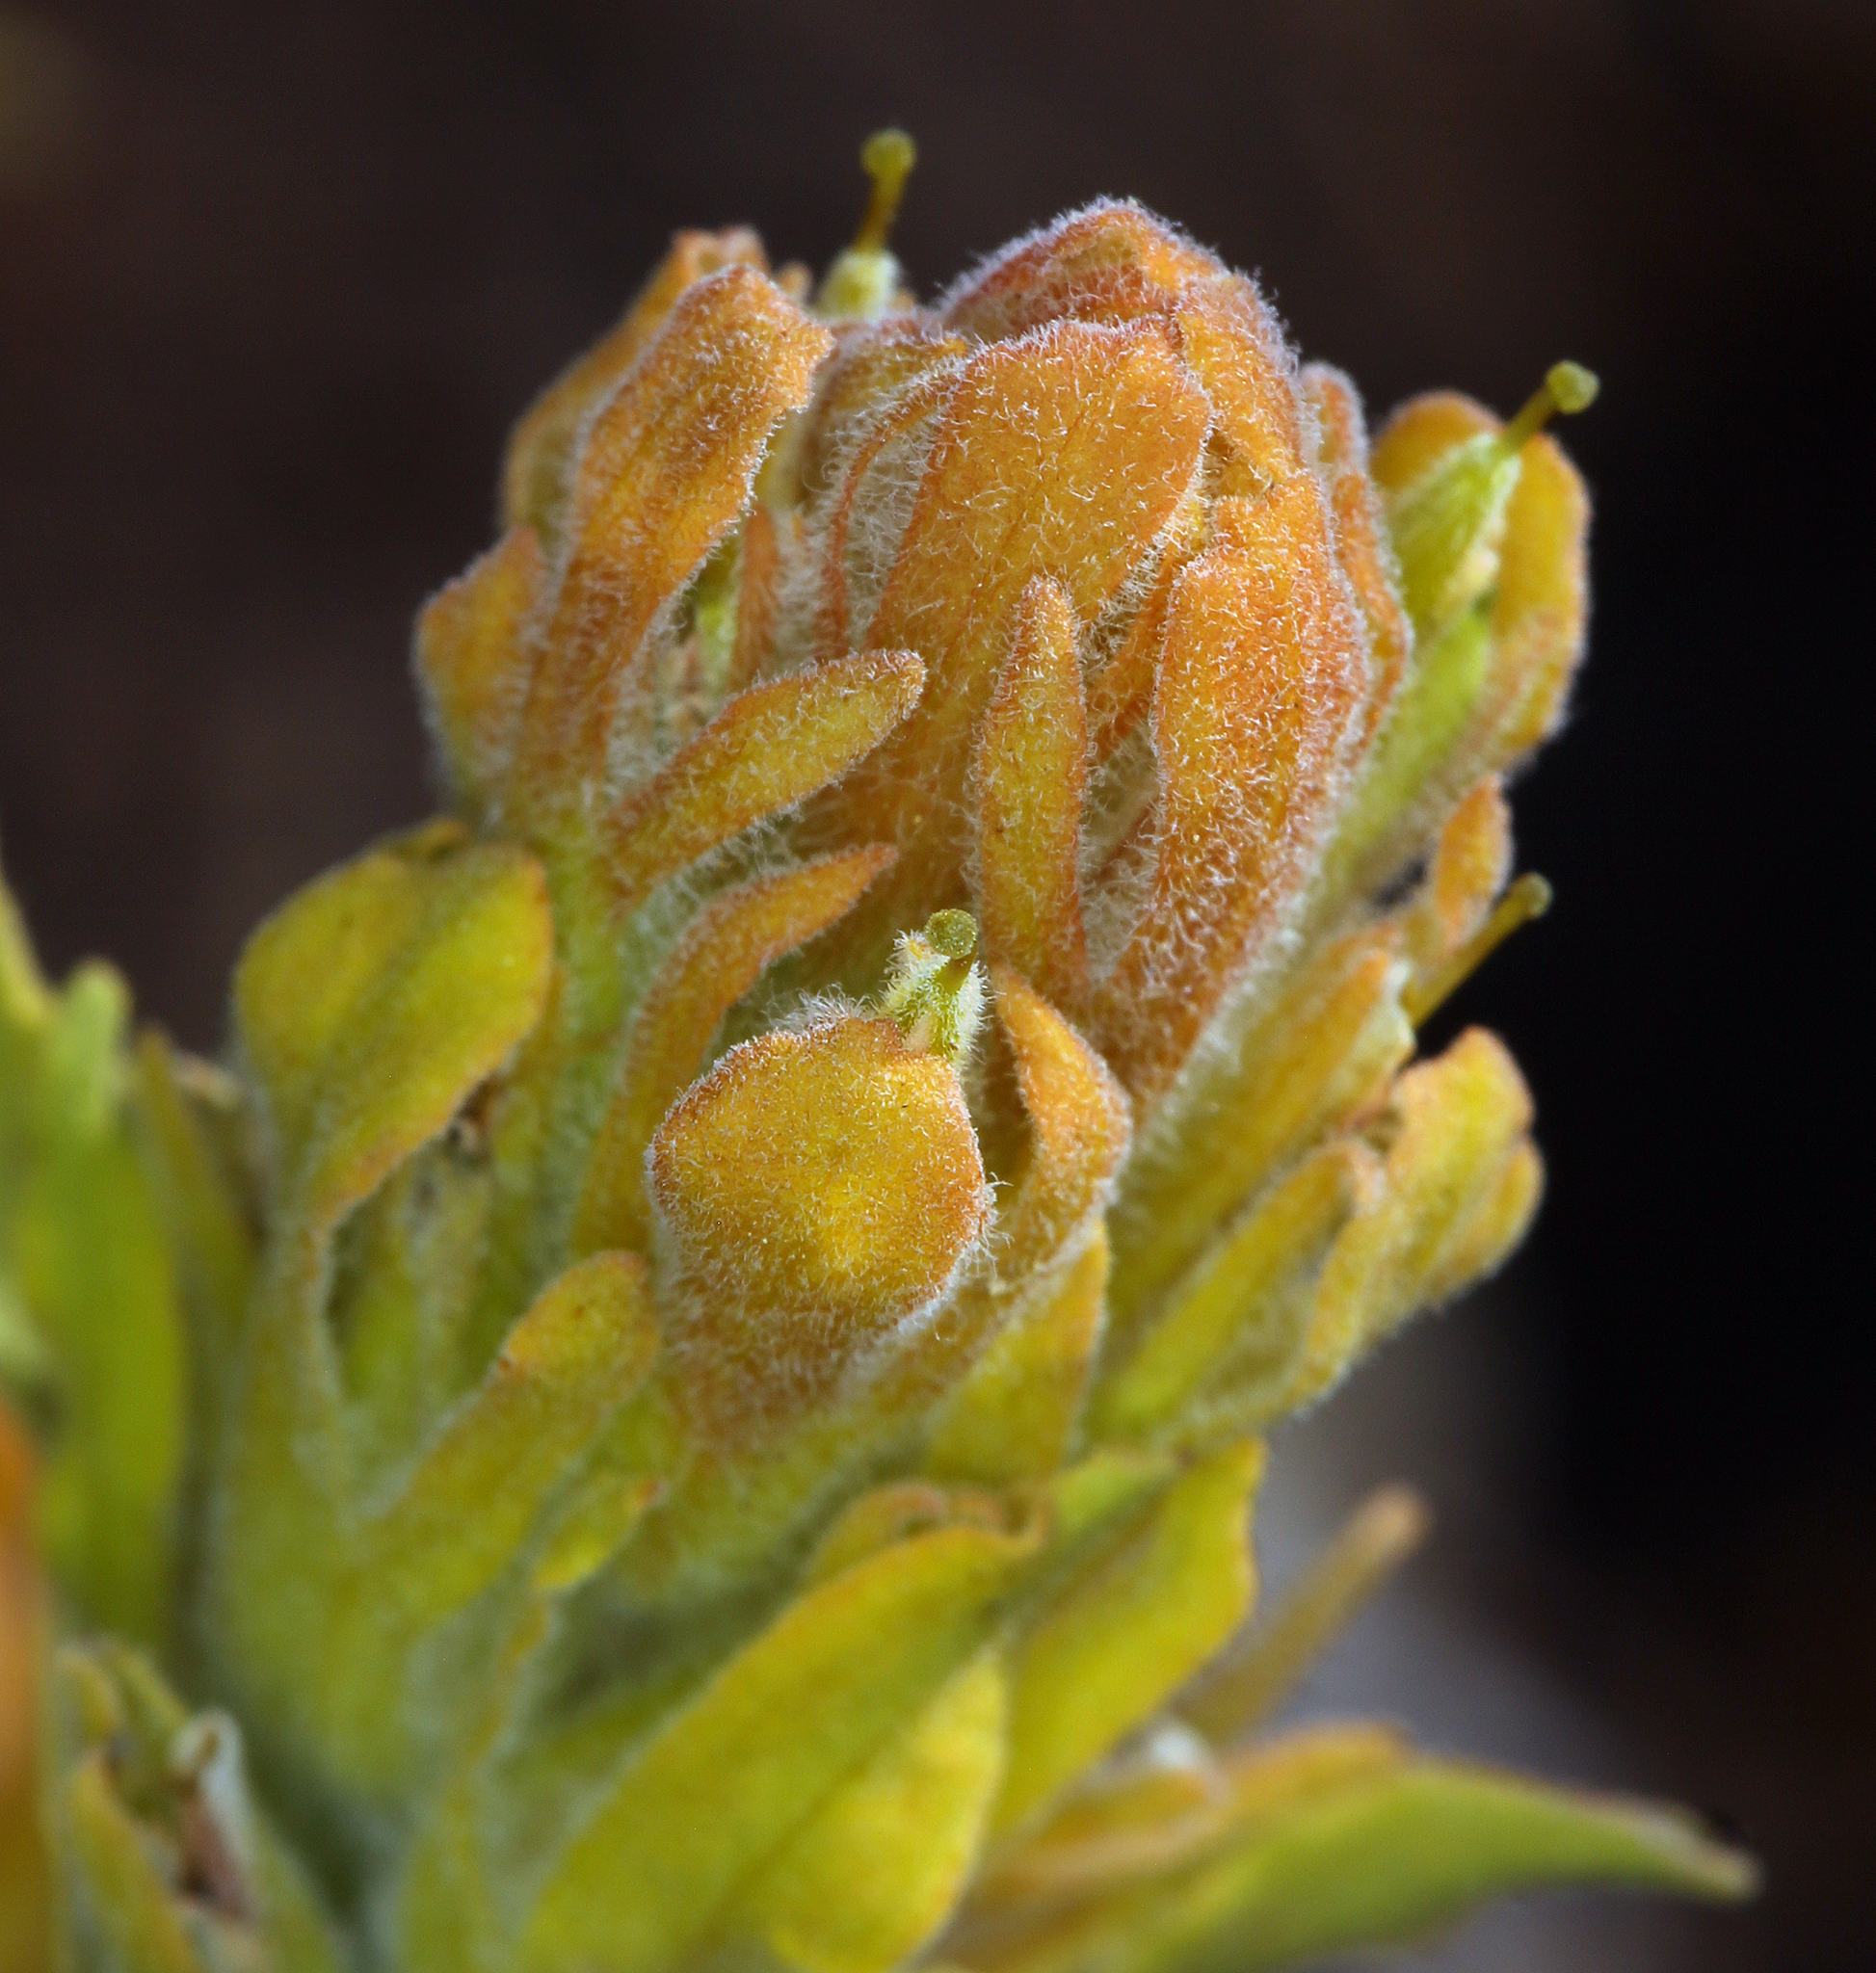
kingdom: Plantae
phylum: Tracheophyta
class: Magnoliopsida
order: Lamiales
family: Orobanchaceae
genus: Castilleja
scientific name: Castilleja arachnoidea
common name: Cobwebby indian paintbrush
